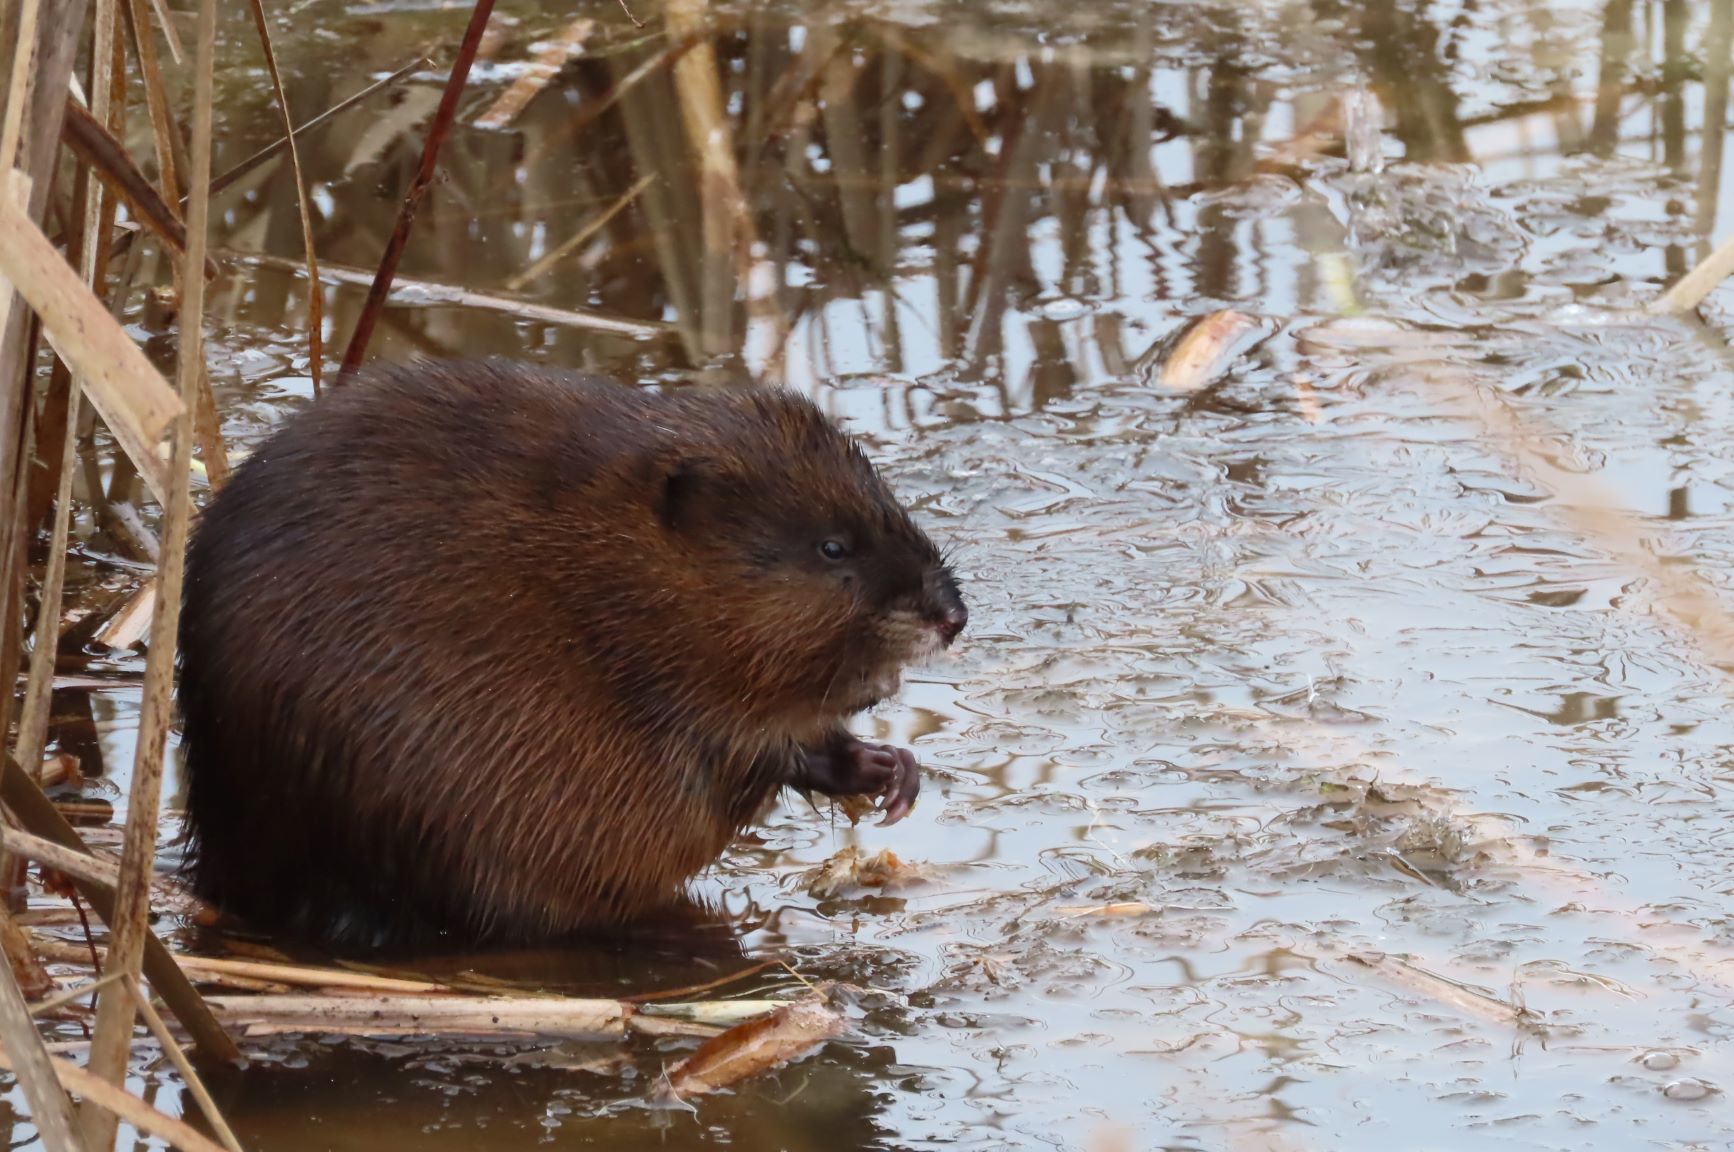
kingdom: Animalia
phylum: Chordata
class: Mammalia
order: Rodentia
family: Cricetidae
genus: Ondatra
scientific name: Ondatra zibethicus
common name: Muskrat
